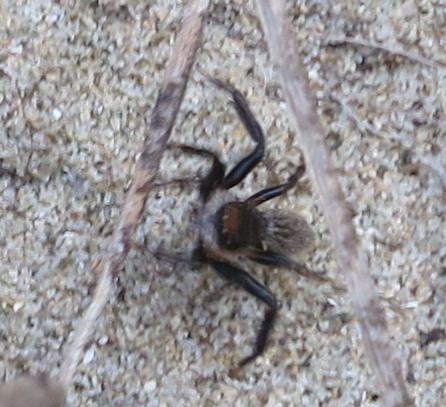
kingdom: Animalia
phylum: Arthropoda
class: Arachnida
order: Araneae
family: Salticidae
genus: Maratus
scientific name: Maratus griseus
